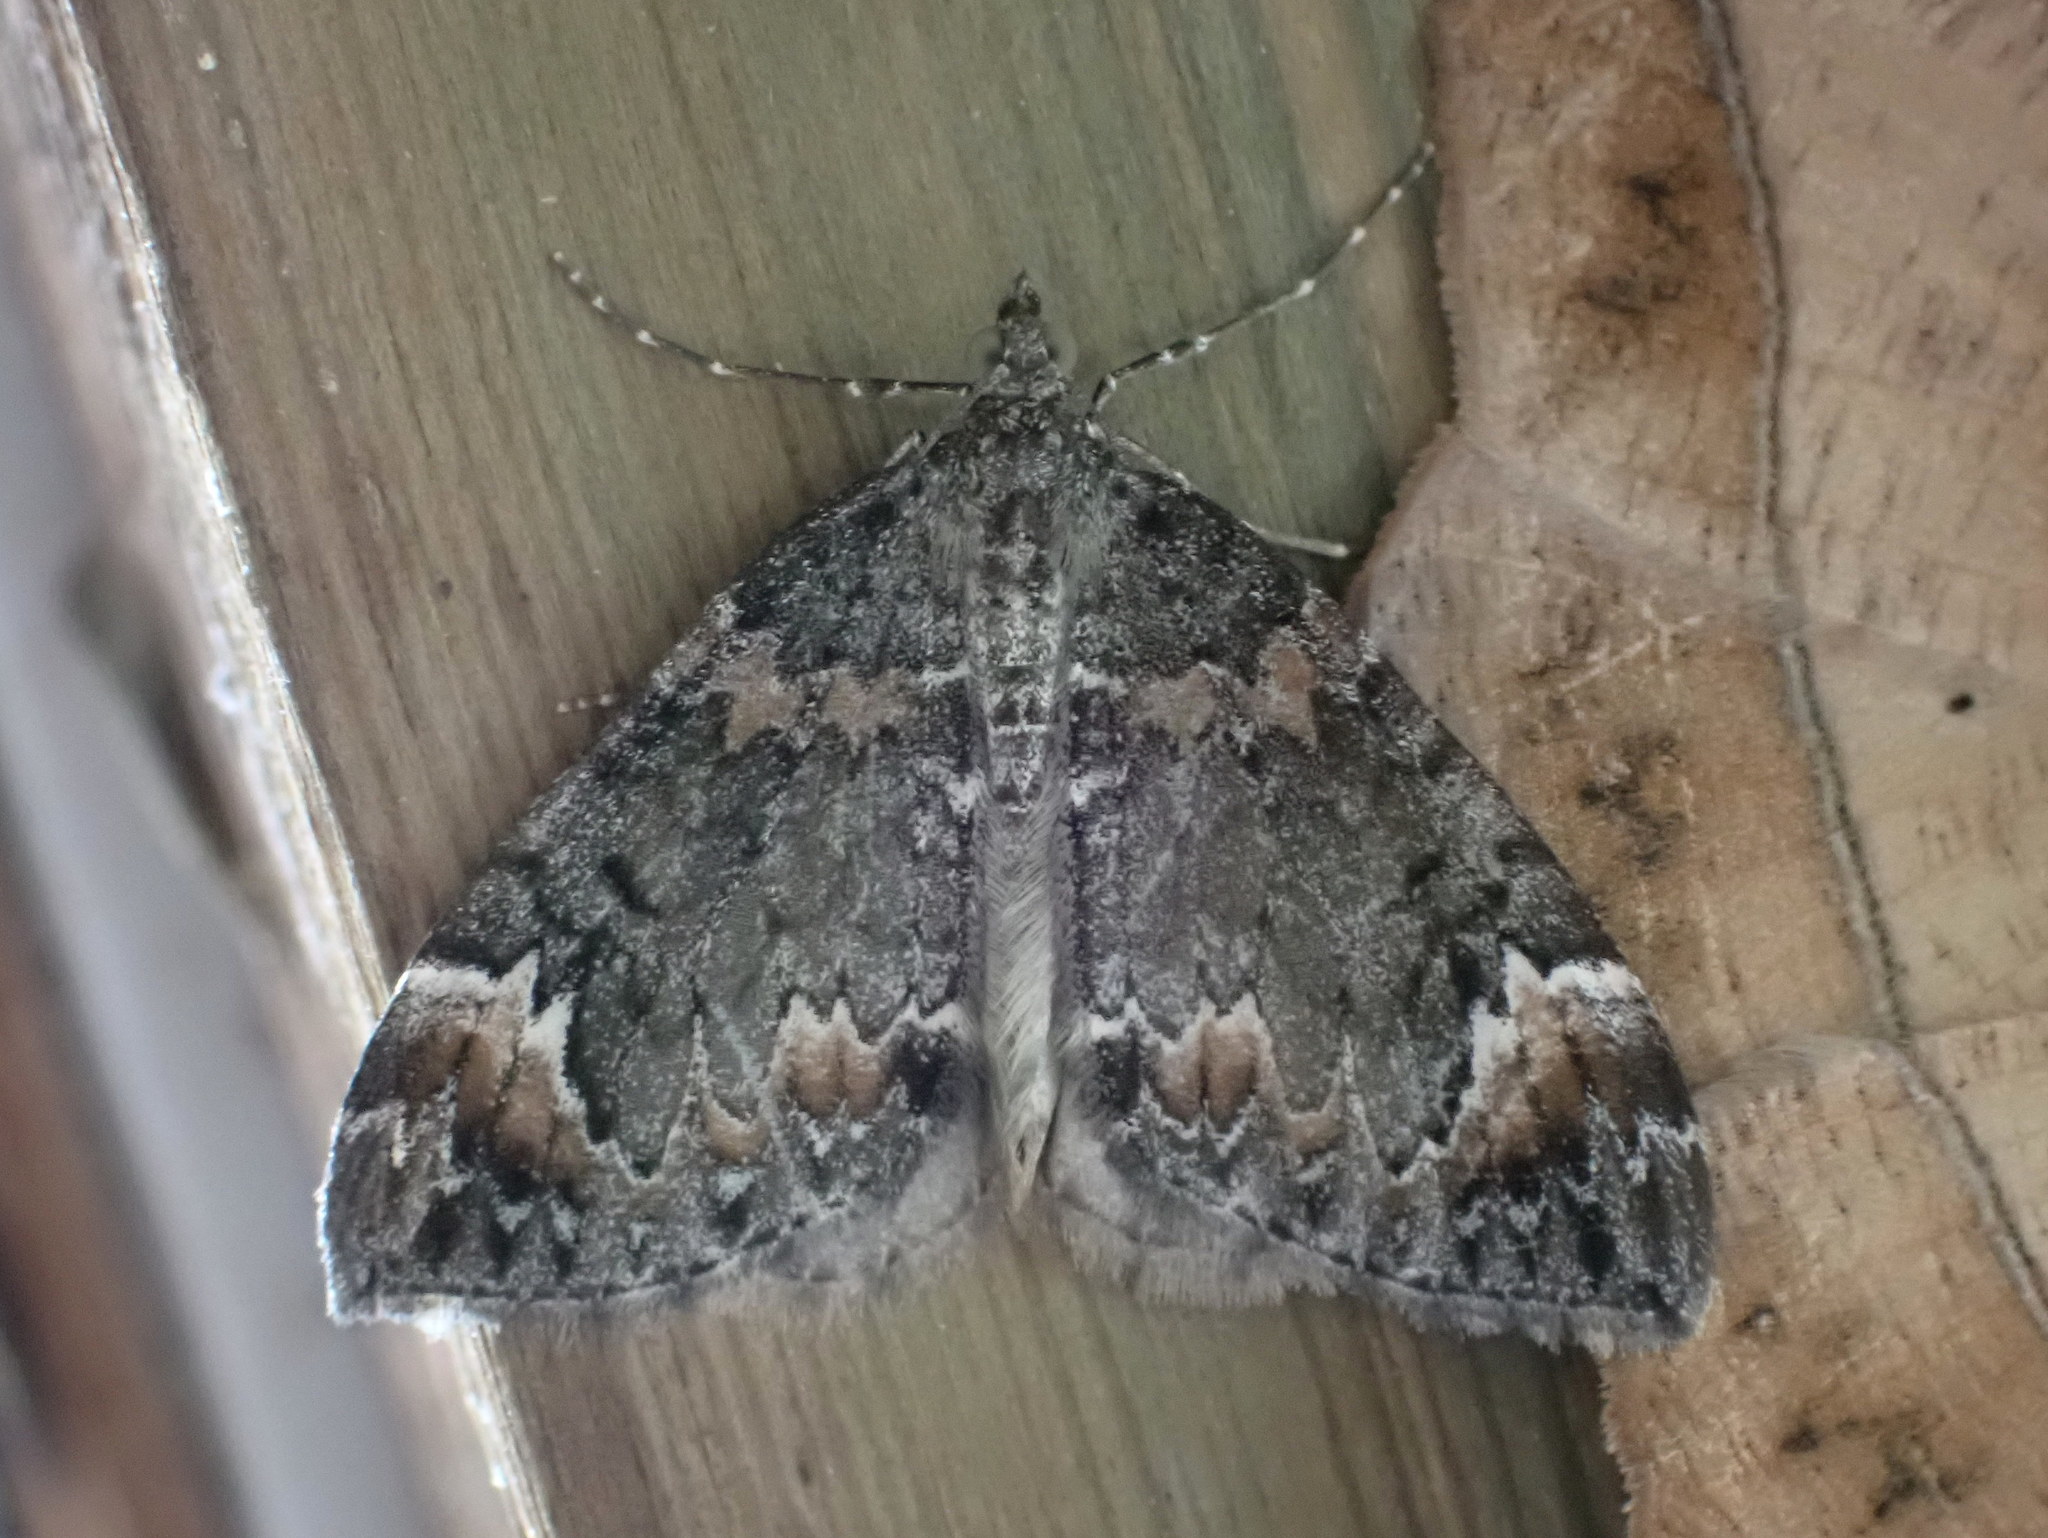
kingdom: Animalia
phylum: Arthropoda
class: Insecta
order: Lepidoptera
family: Geometridae
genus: Dysstroma
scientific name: Dysstroma citrata
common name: Dark marbled carpet
